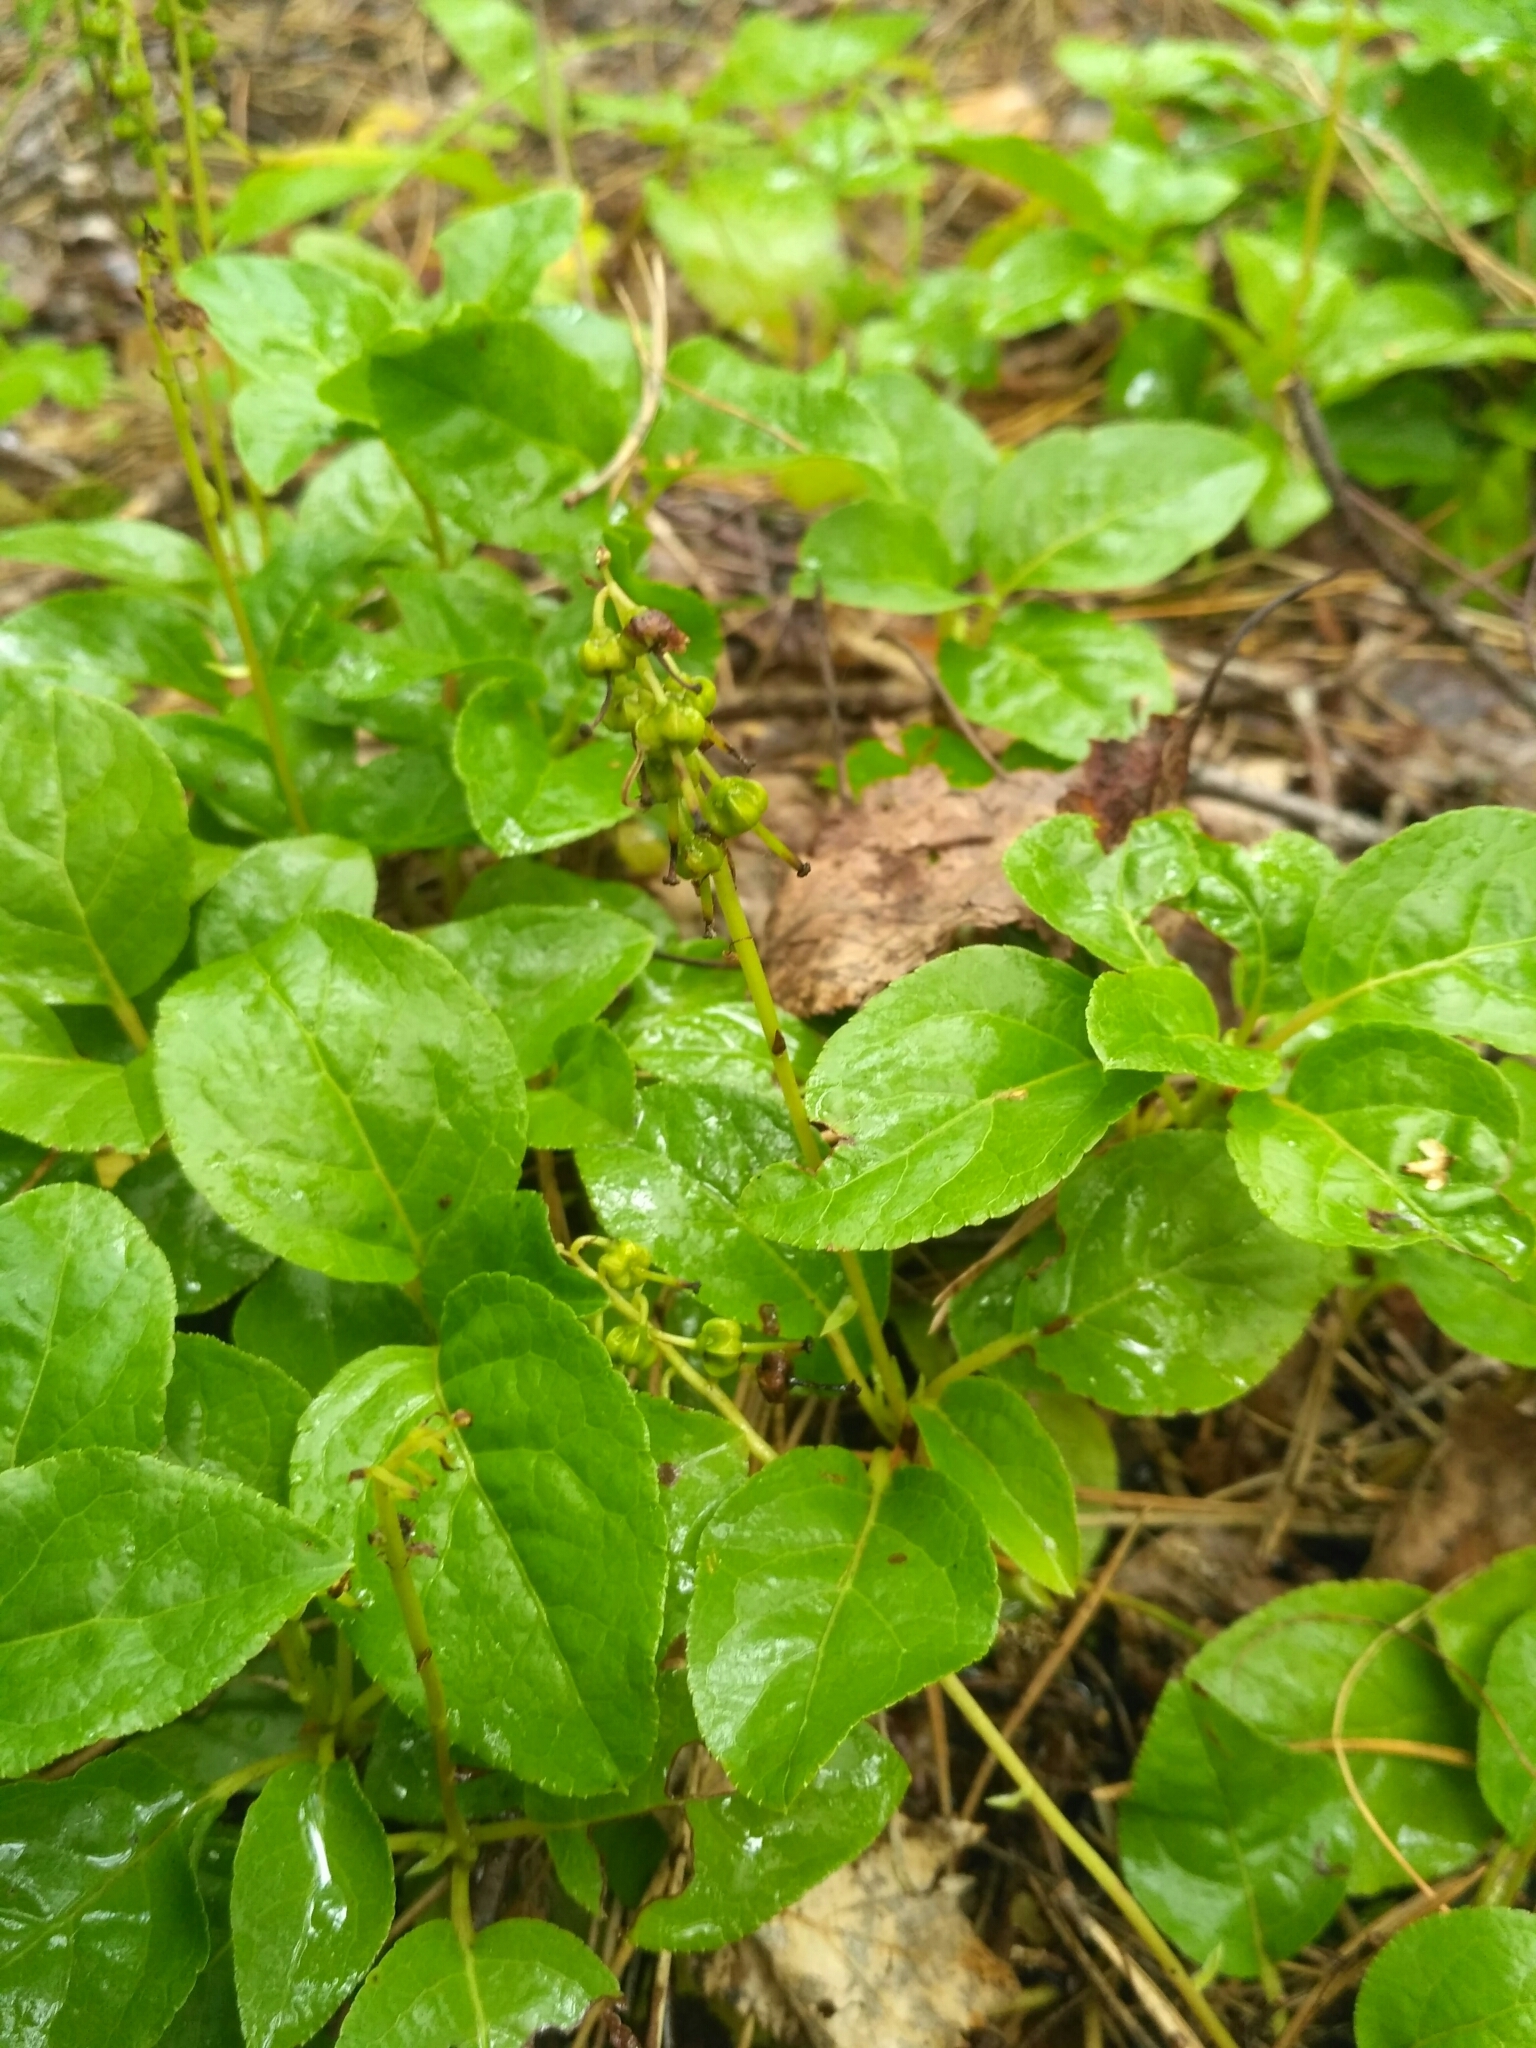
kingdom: Plantae
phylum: Tracheophyta
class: Magnoliopsida
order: Ericales
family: Ericaceae
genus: Orthilia
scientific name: Orthilia secunda
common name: One-sided orthilia
